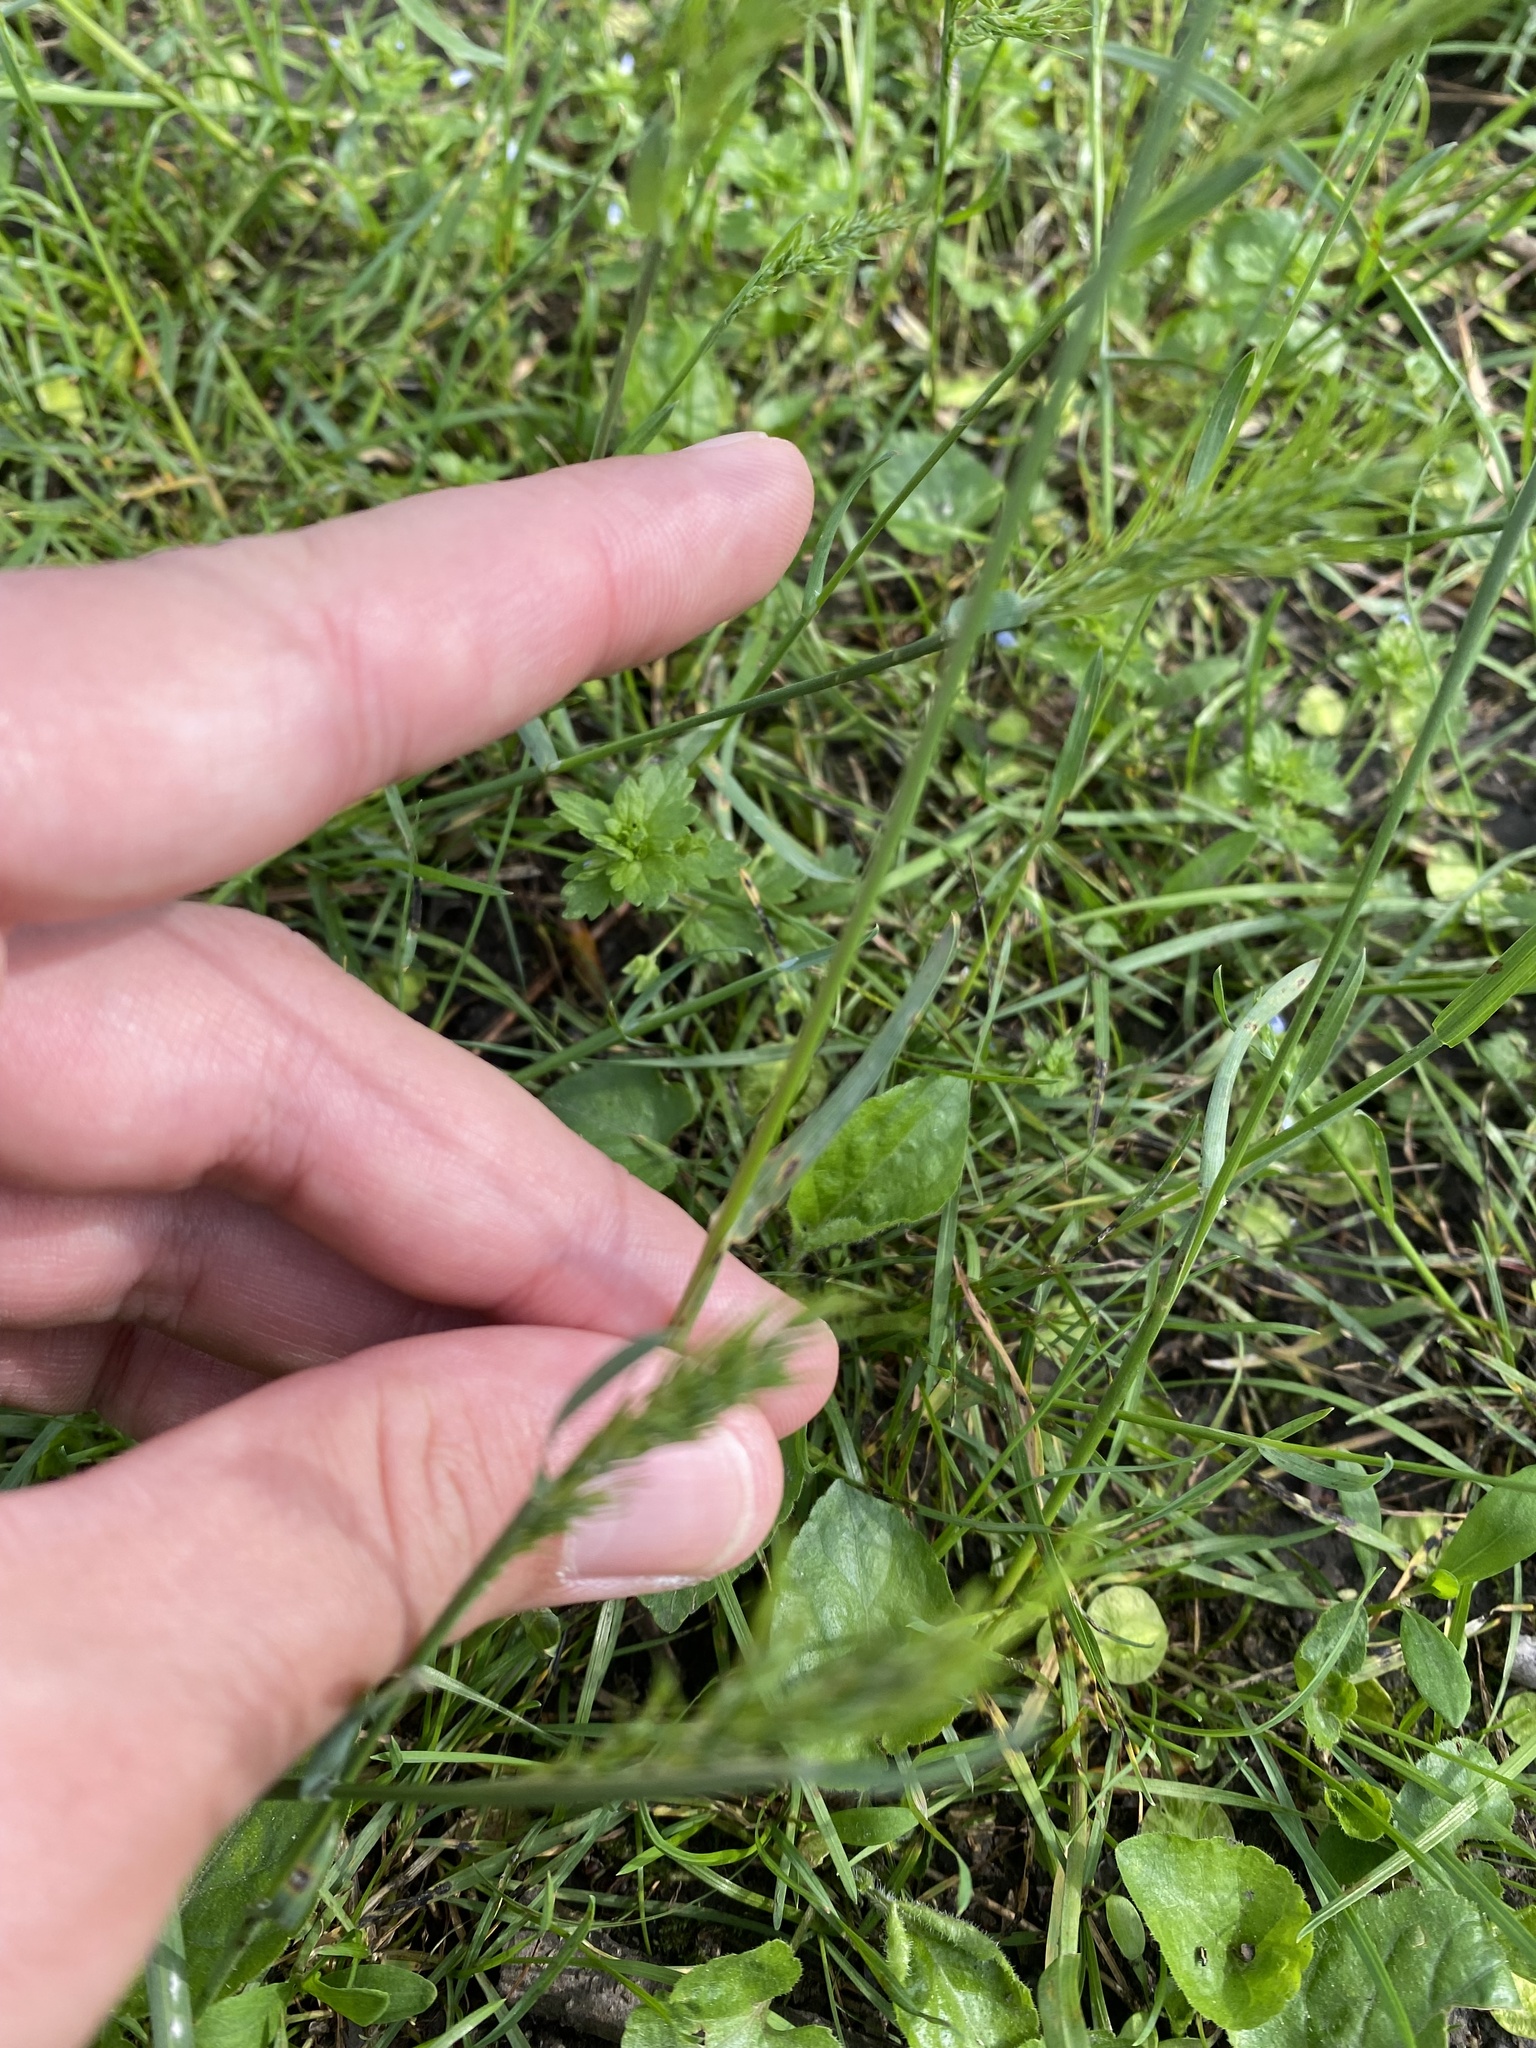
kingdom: Plantae
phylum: Tracheophyta
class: Liliopsida
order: Poales
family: Poaceae
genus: Poa
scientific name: Poa bulbosa
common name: Bulbous bluegrass
